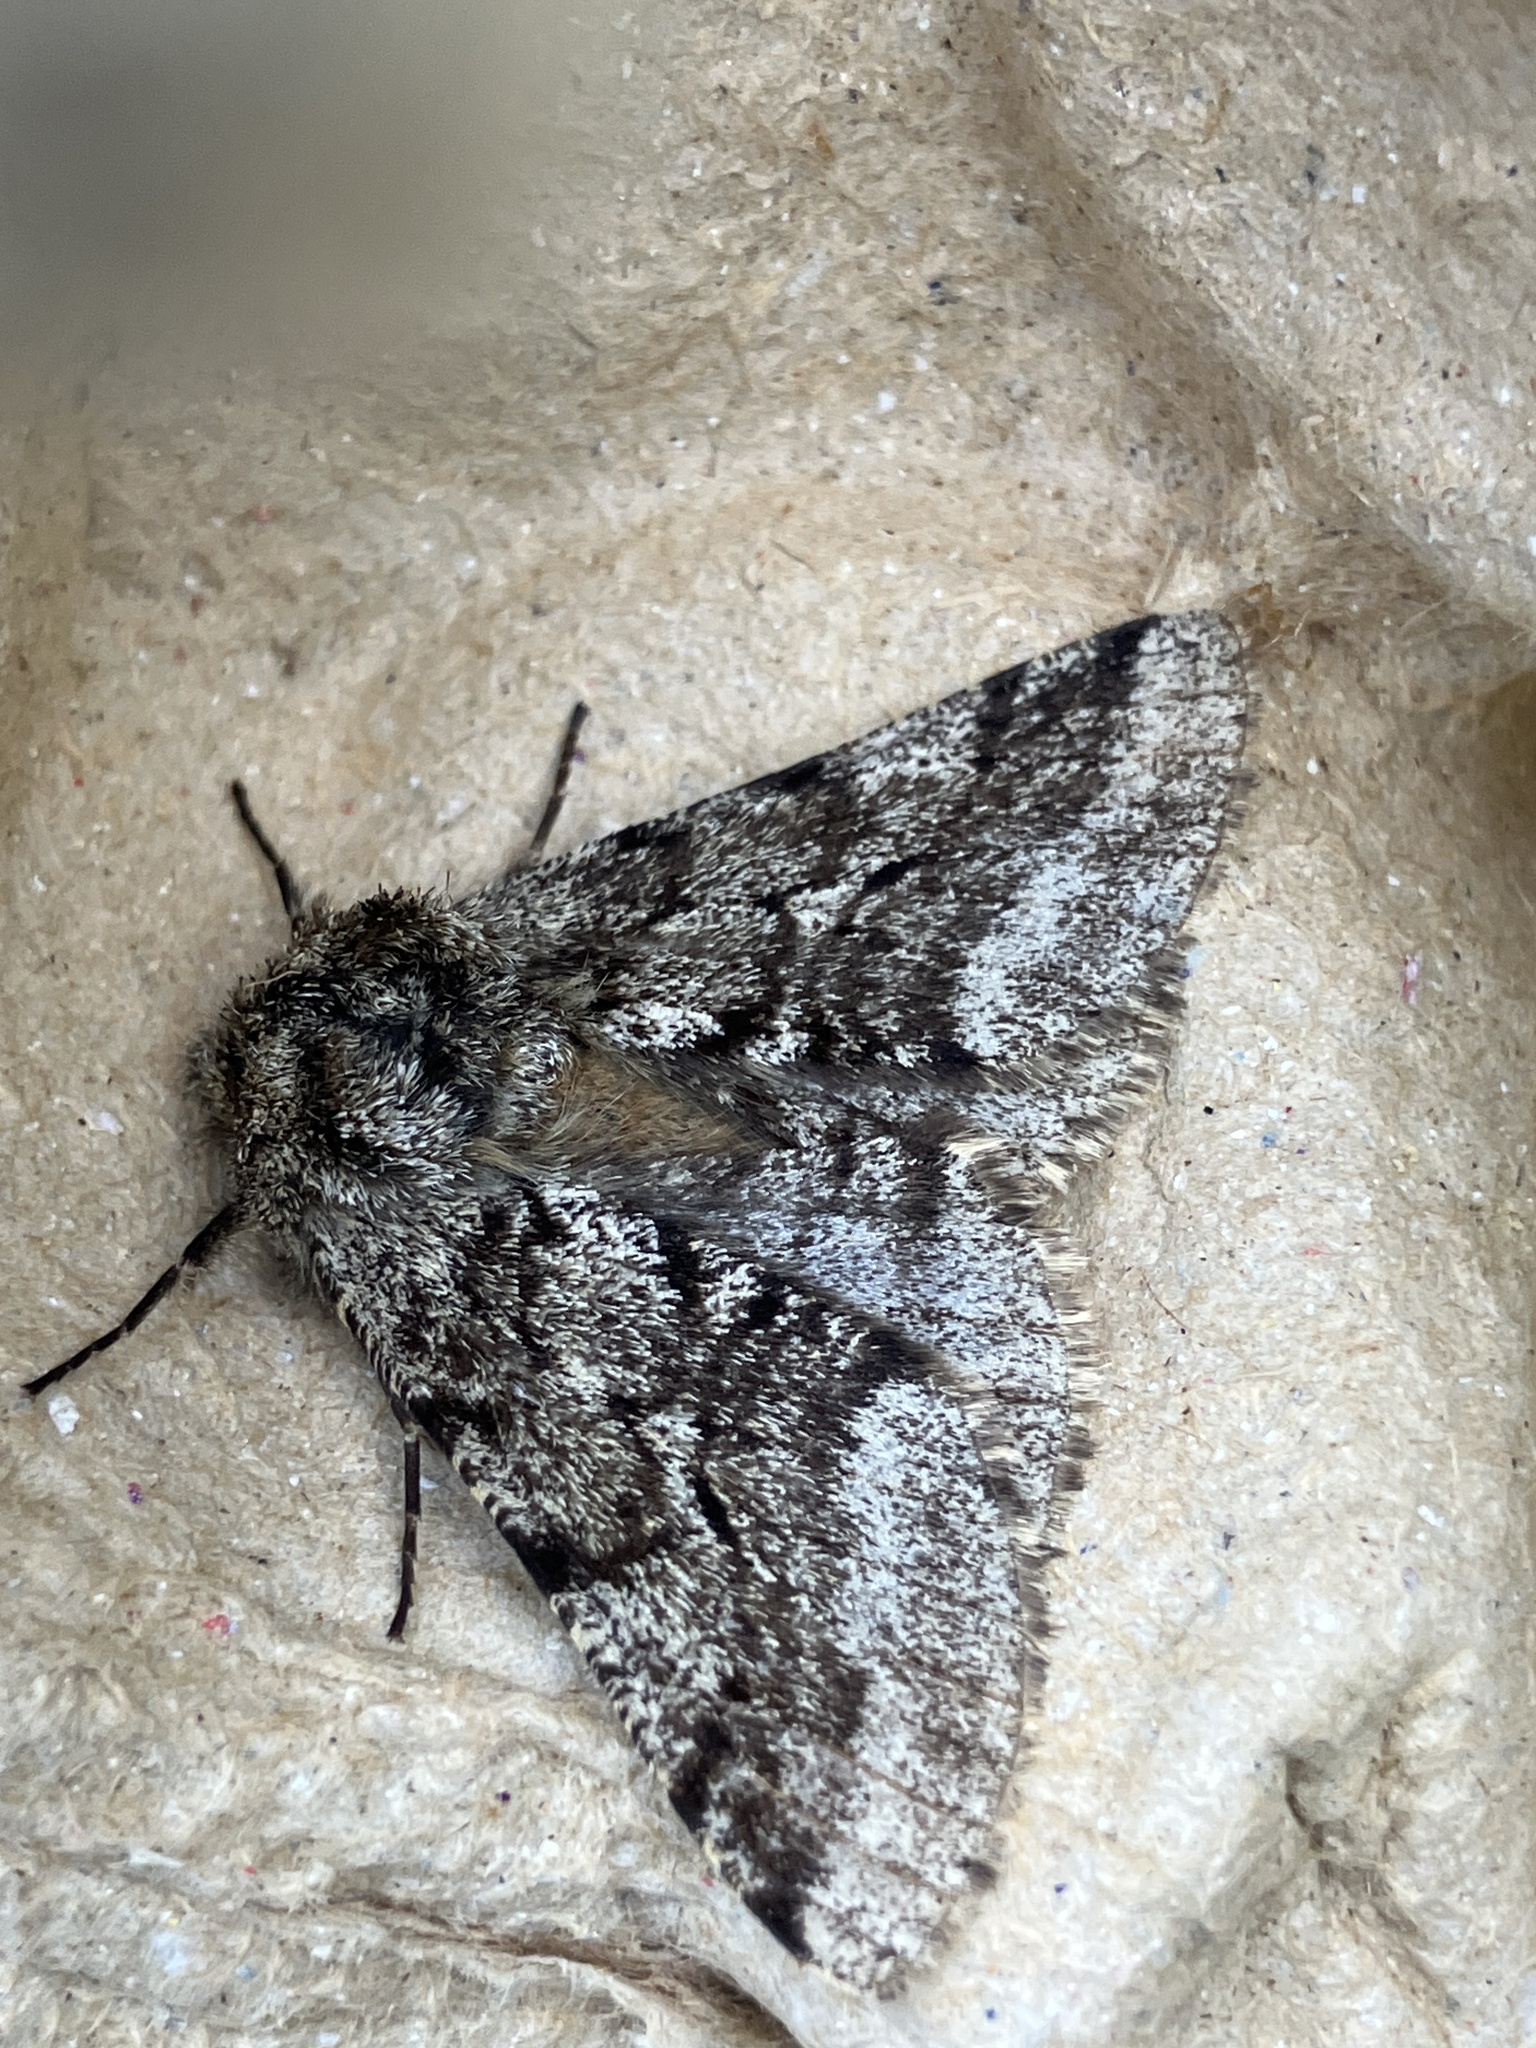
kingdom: Animalia
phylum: Arthropoda
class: Insecta
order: Lepidoptera
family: Geometridae
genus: Lycia
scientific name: Lycia hirtaria
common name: Brindled beauty
